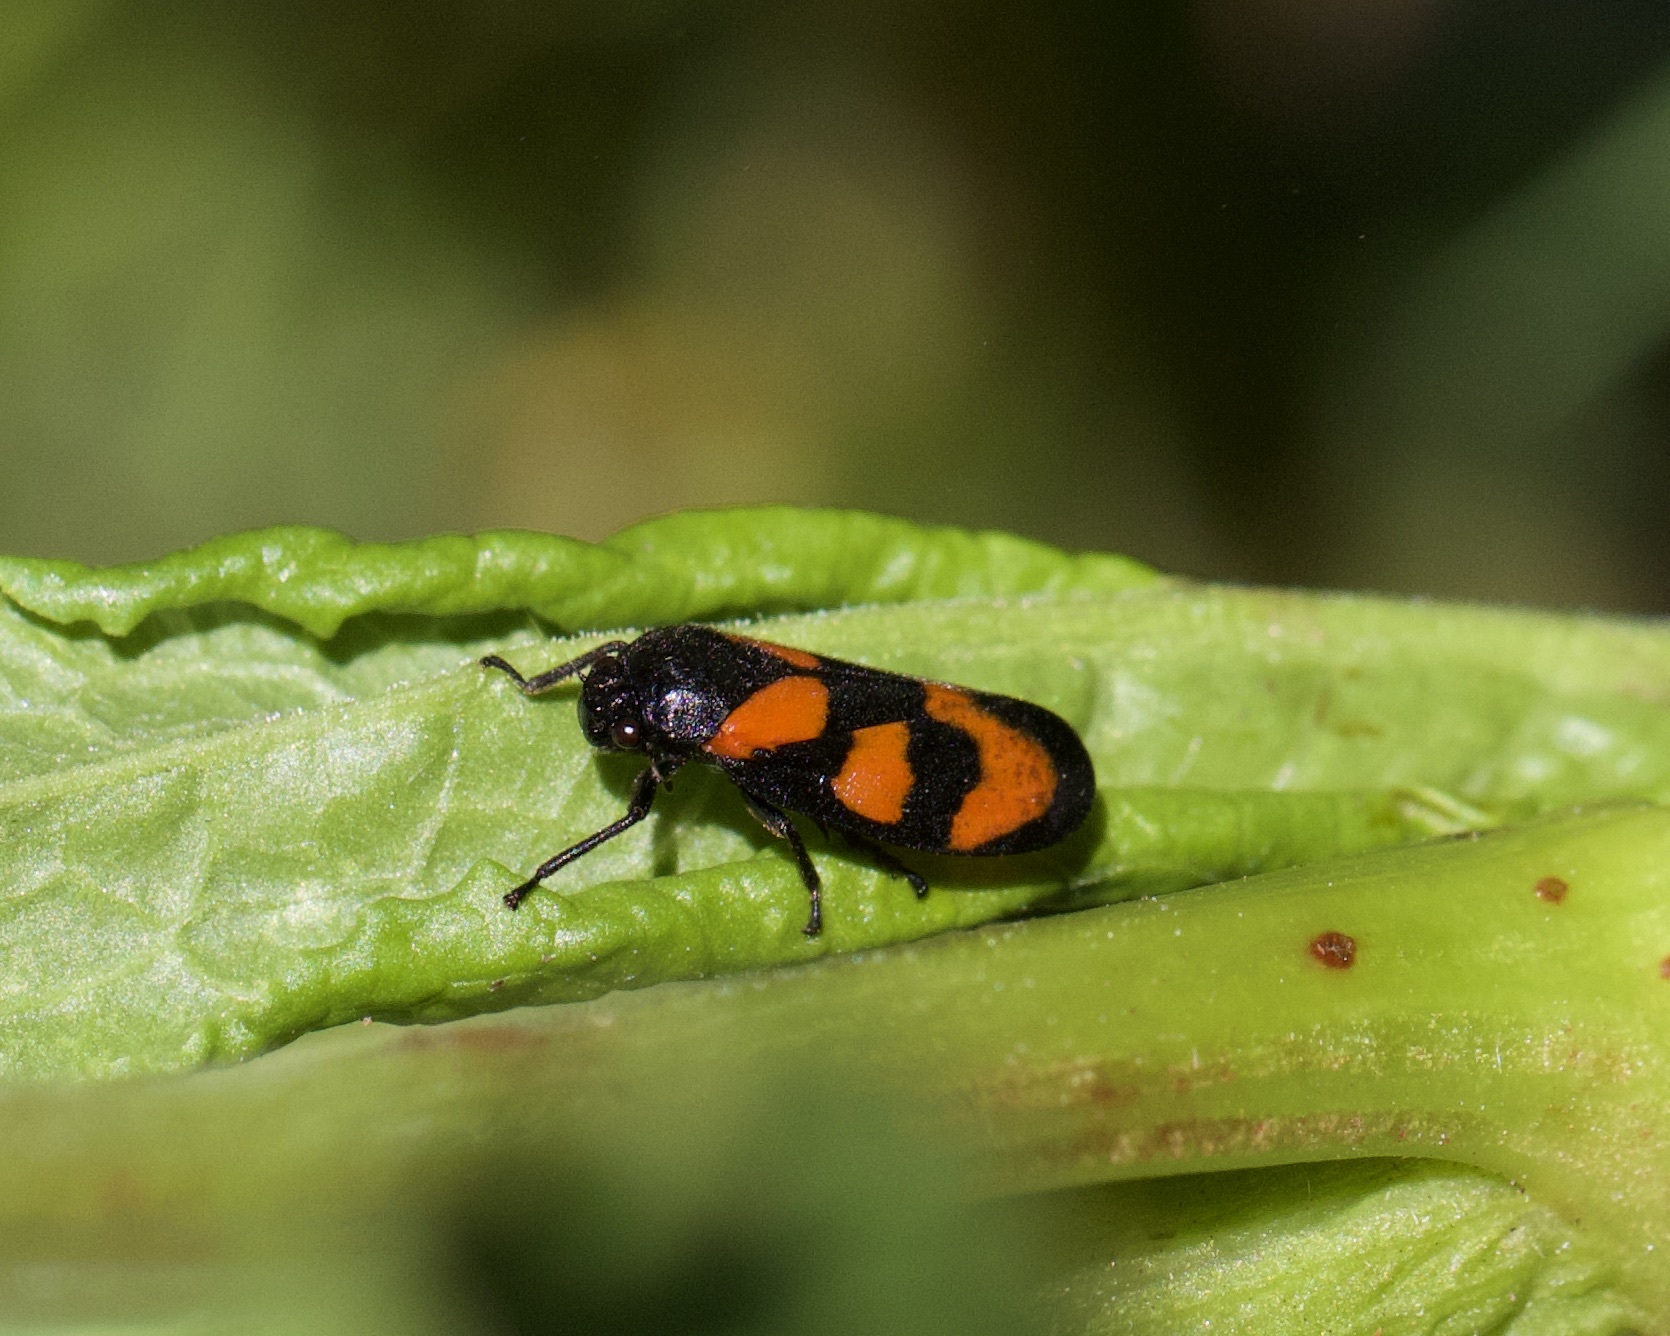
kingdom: Animalia
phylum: Arthropoda
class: Insecta
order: Hemiptera
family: Cercopidae
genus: Cercopis
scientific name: Cercopis vulnerata
